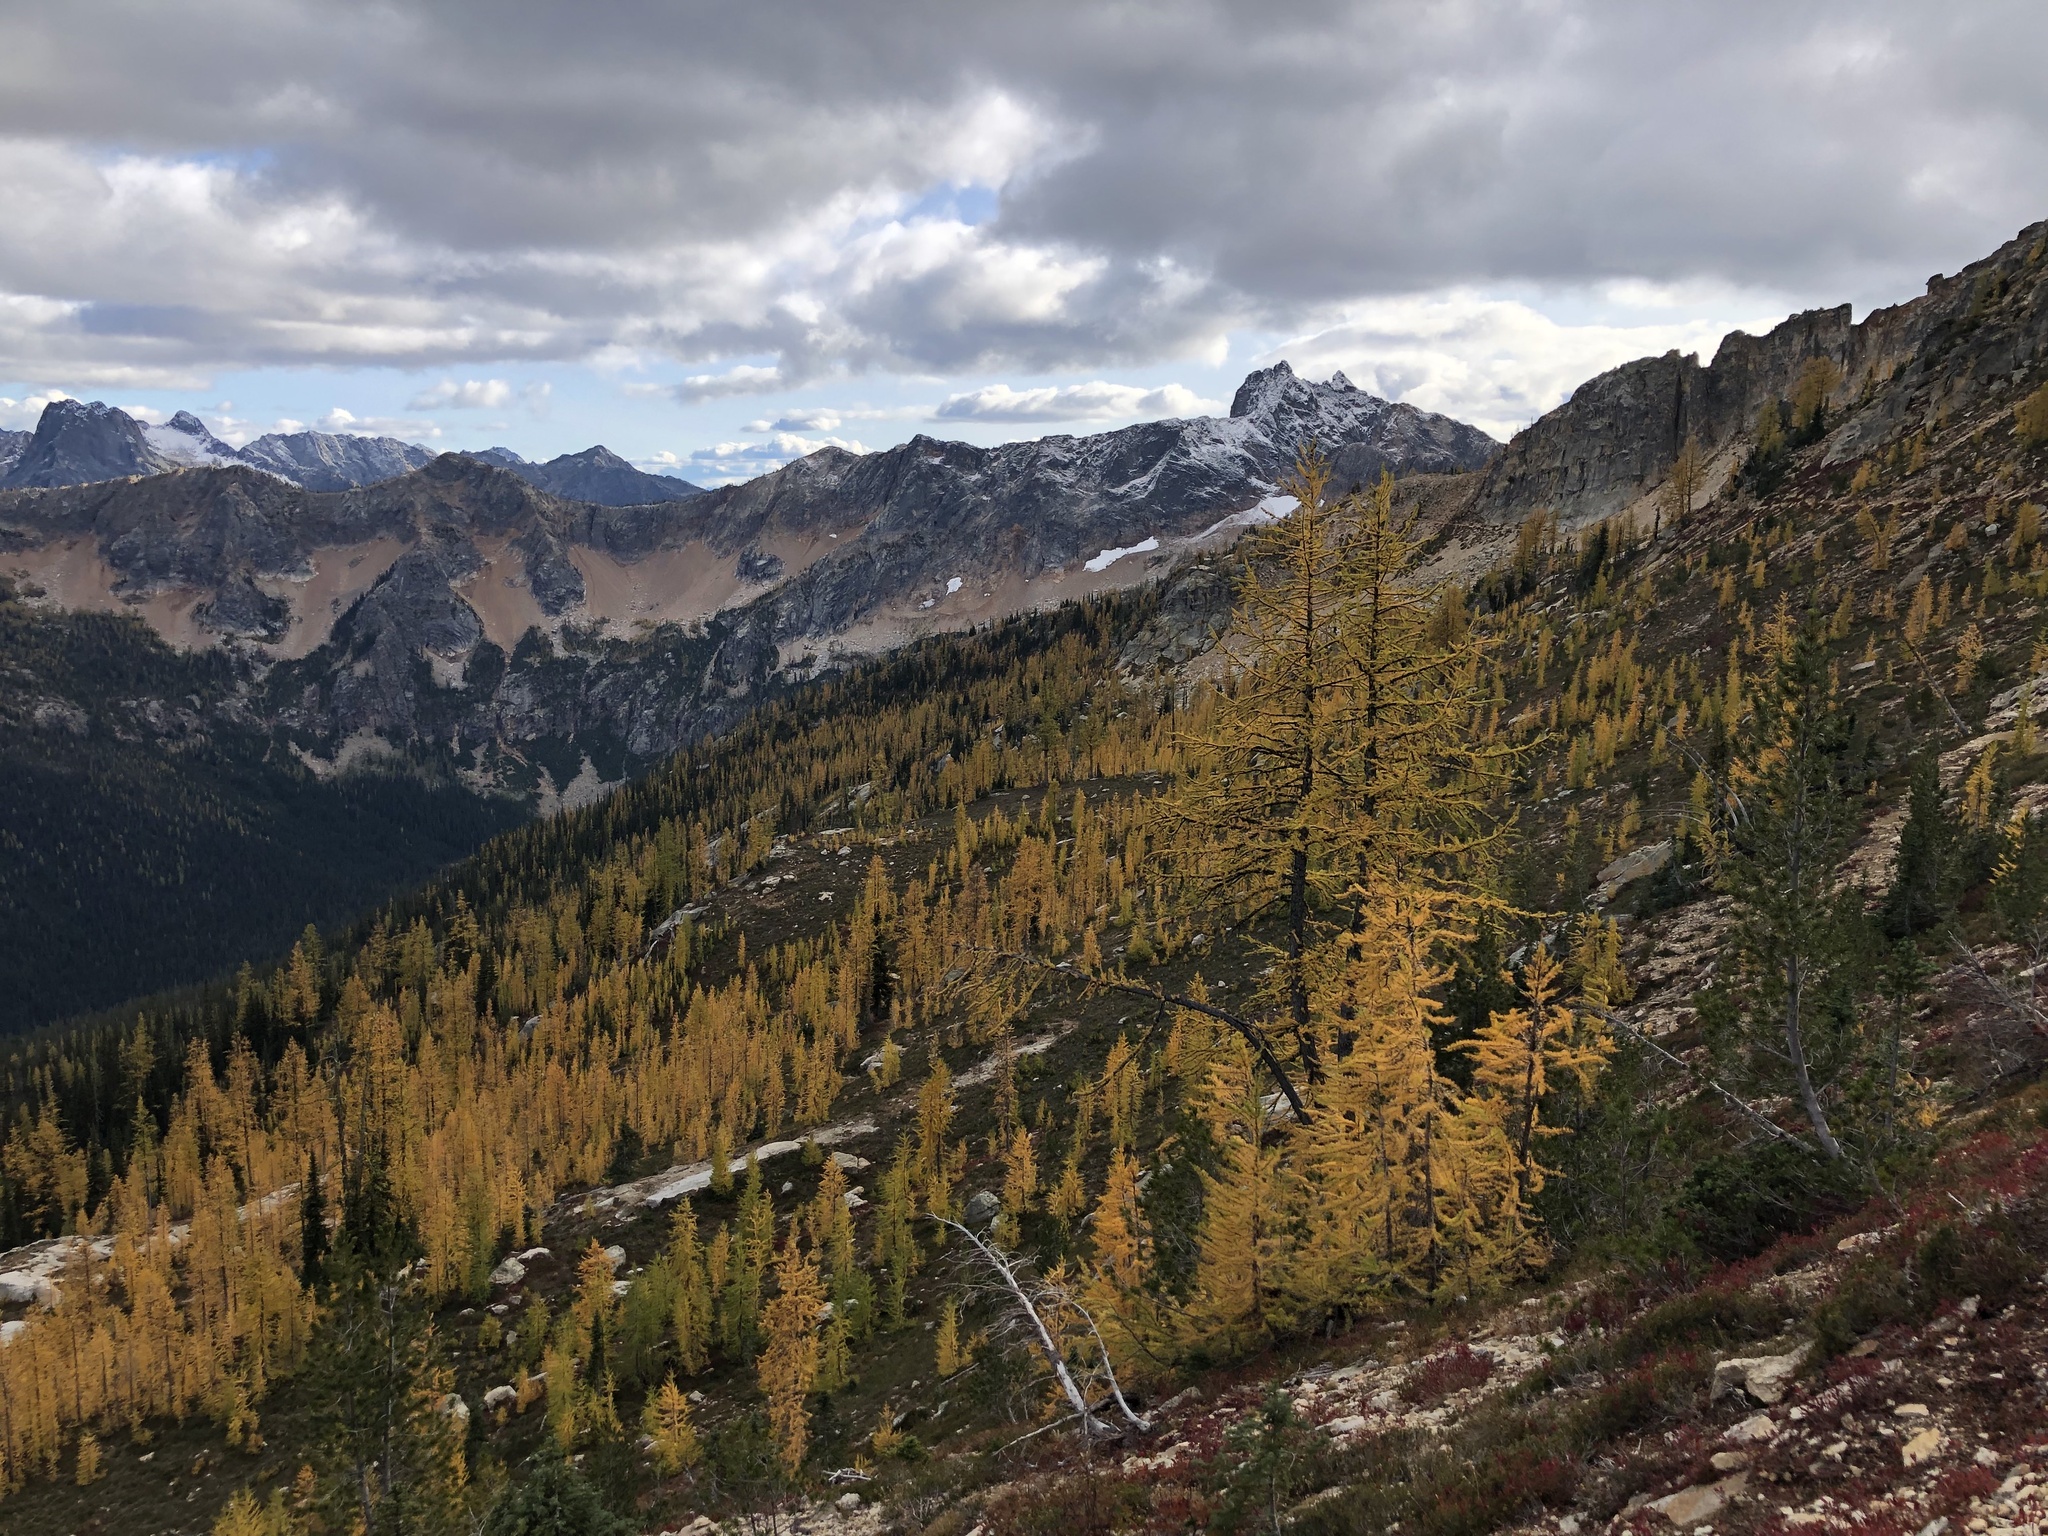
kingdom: Plantae
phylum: Tracheophyta
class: Pinopsida
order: Pinales
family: Pinaceae
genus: Larix
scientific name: Larix lyallii
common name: Alpine larch
